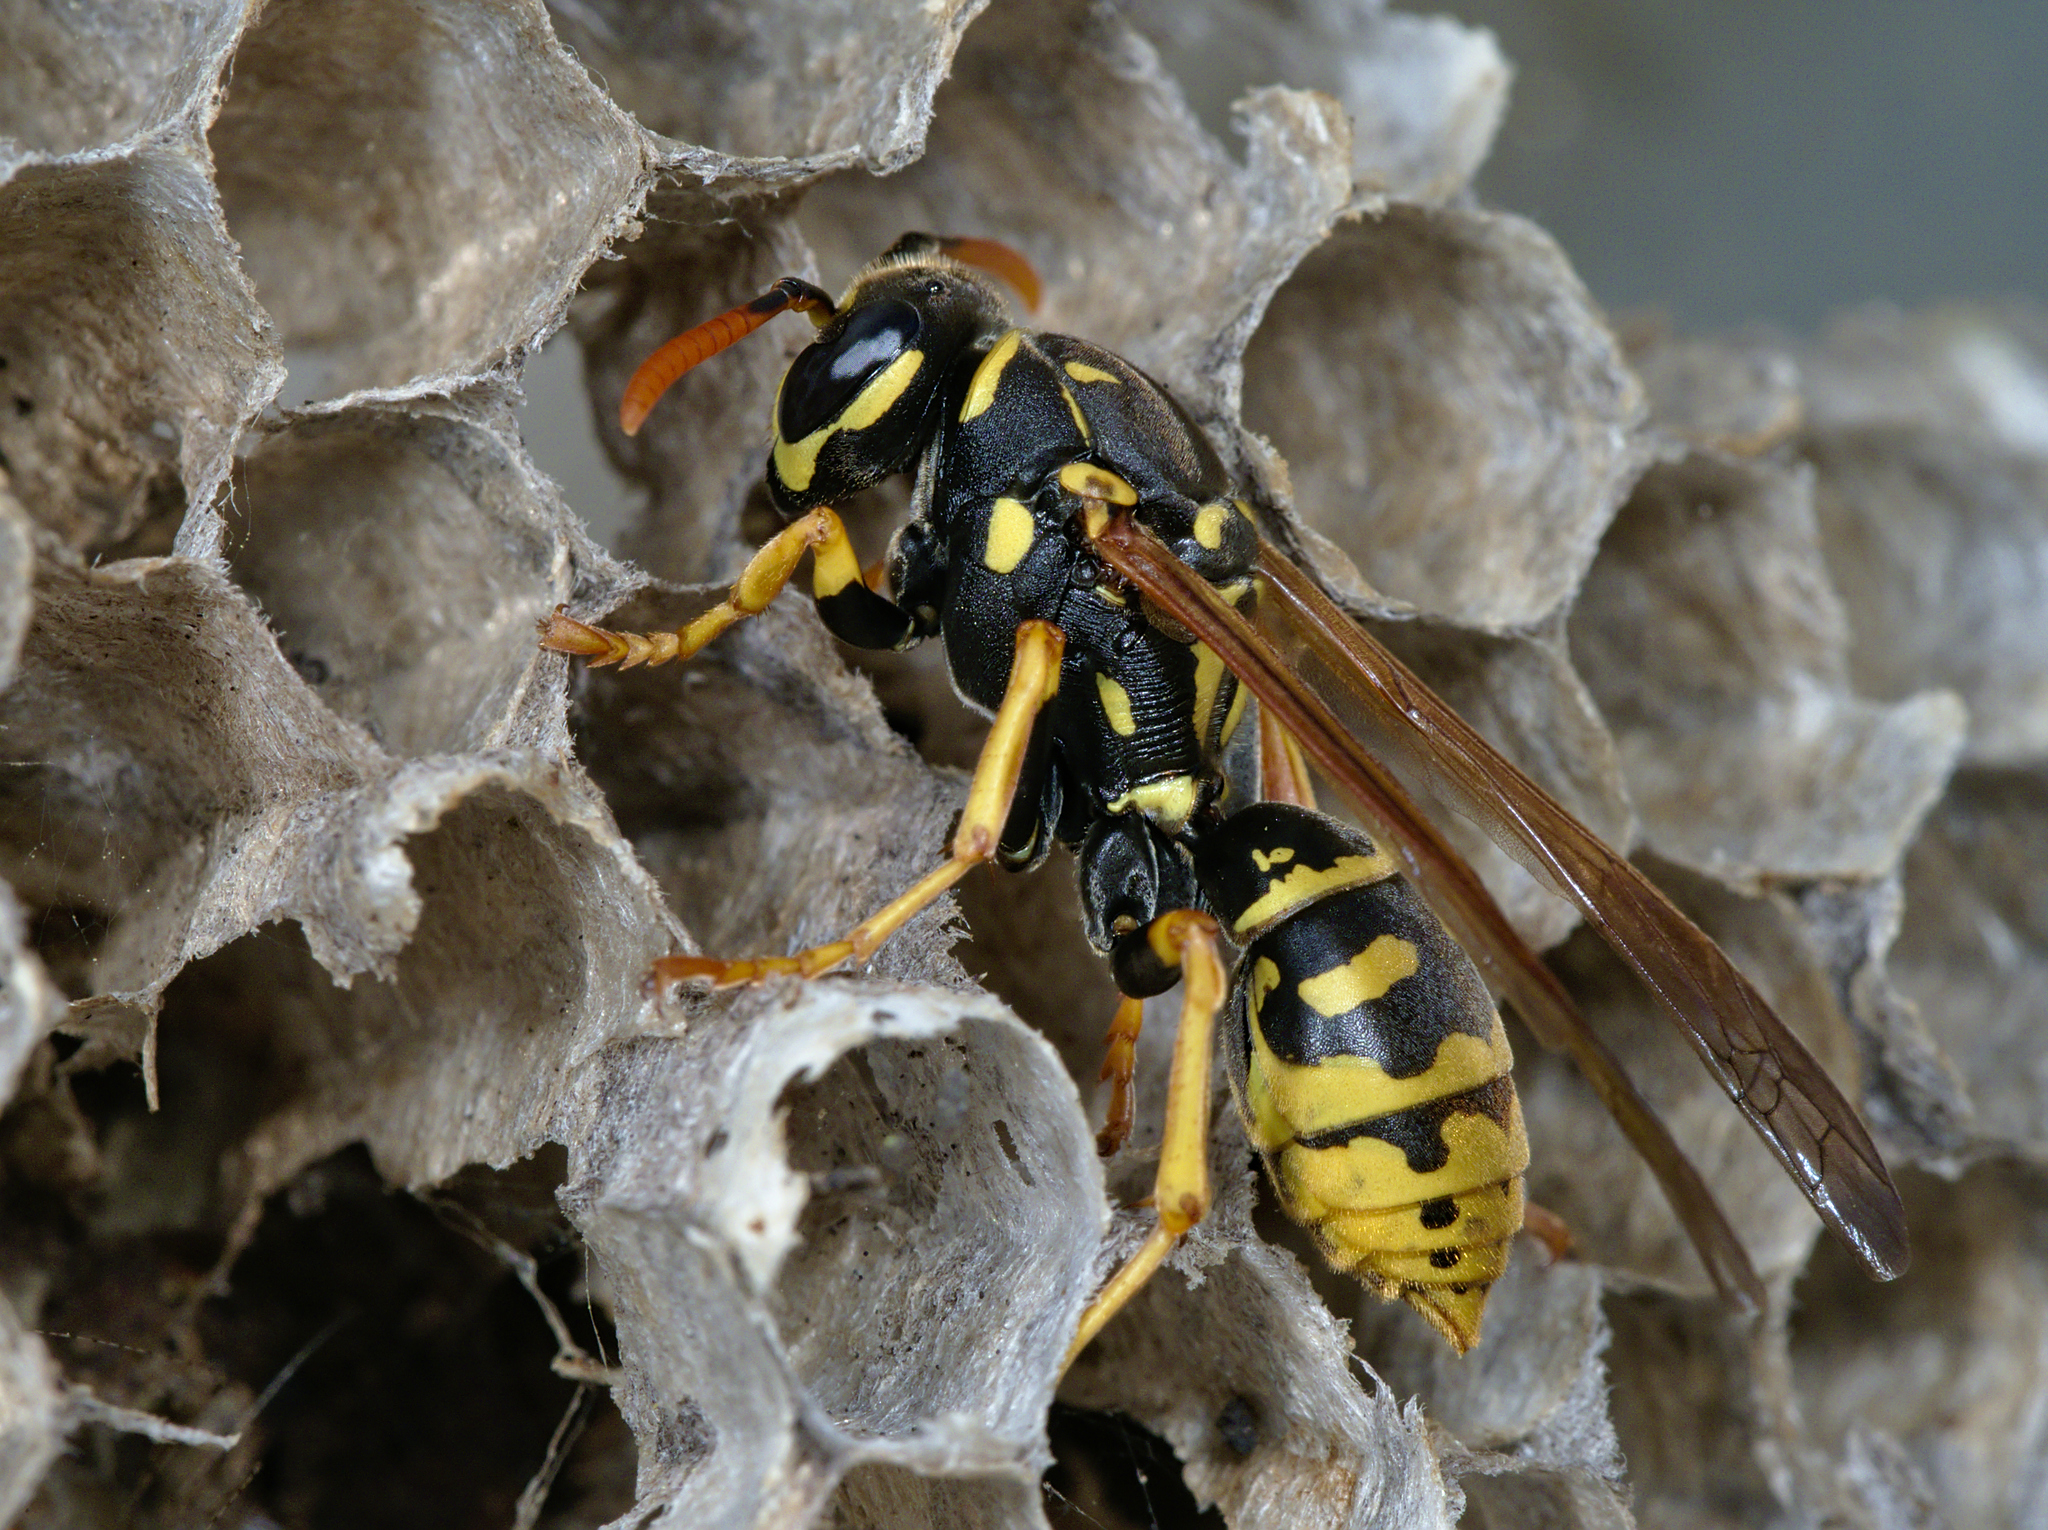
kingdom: Animalia
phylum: Arthropoda
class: Insecta
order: Hymenoptera
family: Eumenidae
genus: Polistes
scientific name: Polistes dominula
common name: Paper wasp
